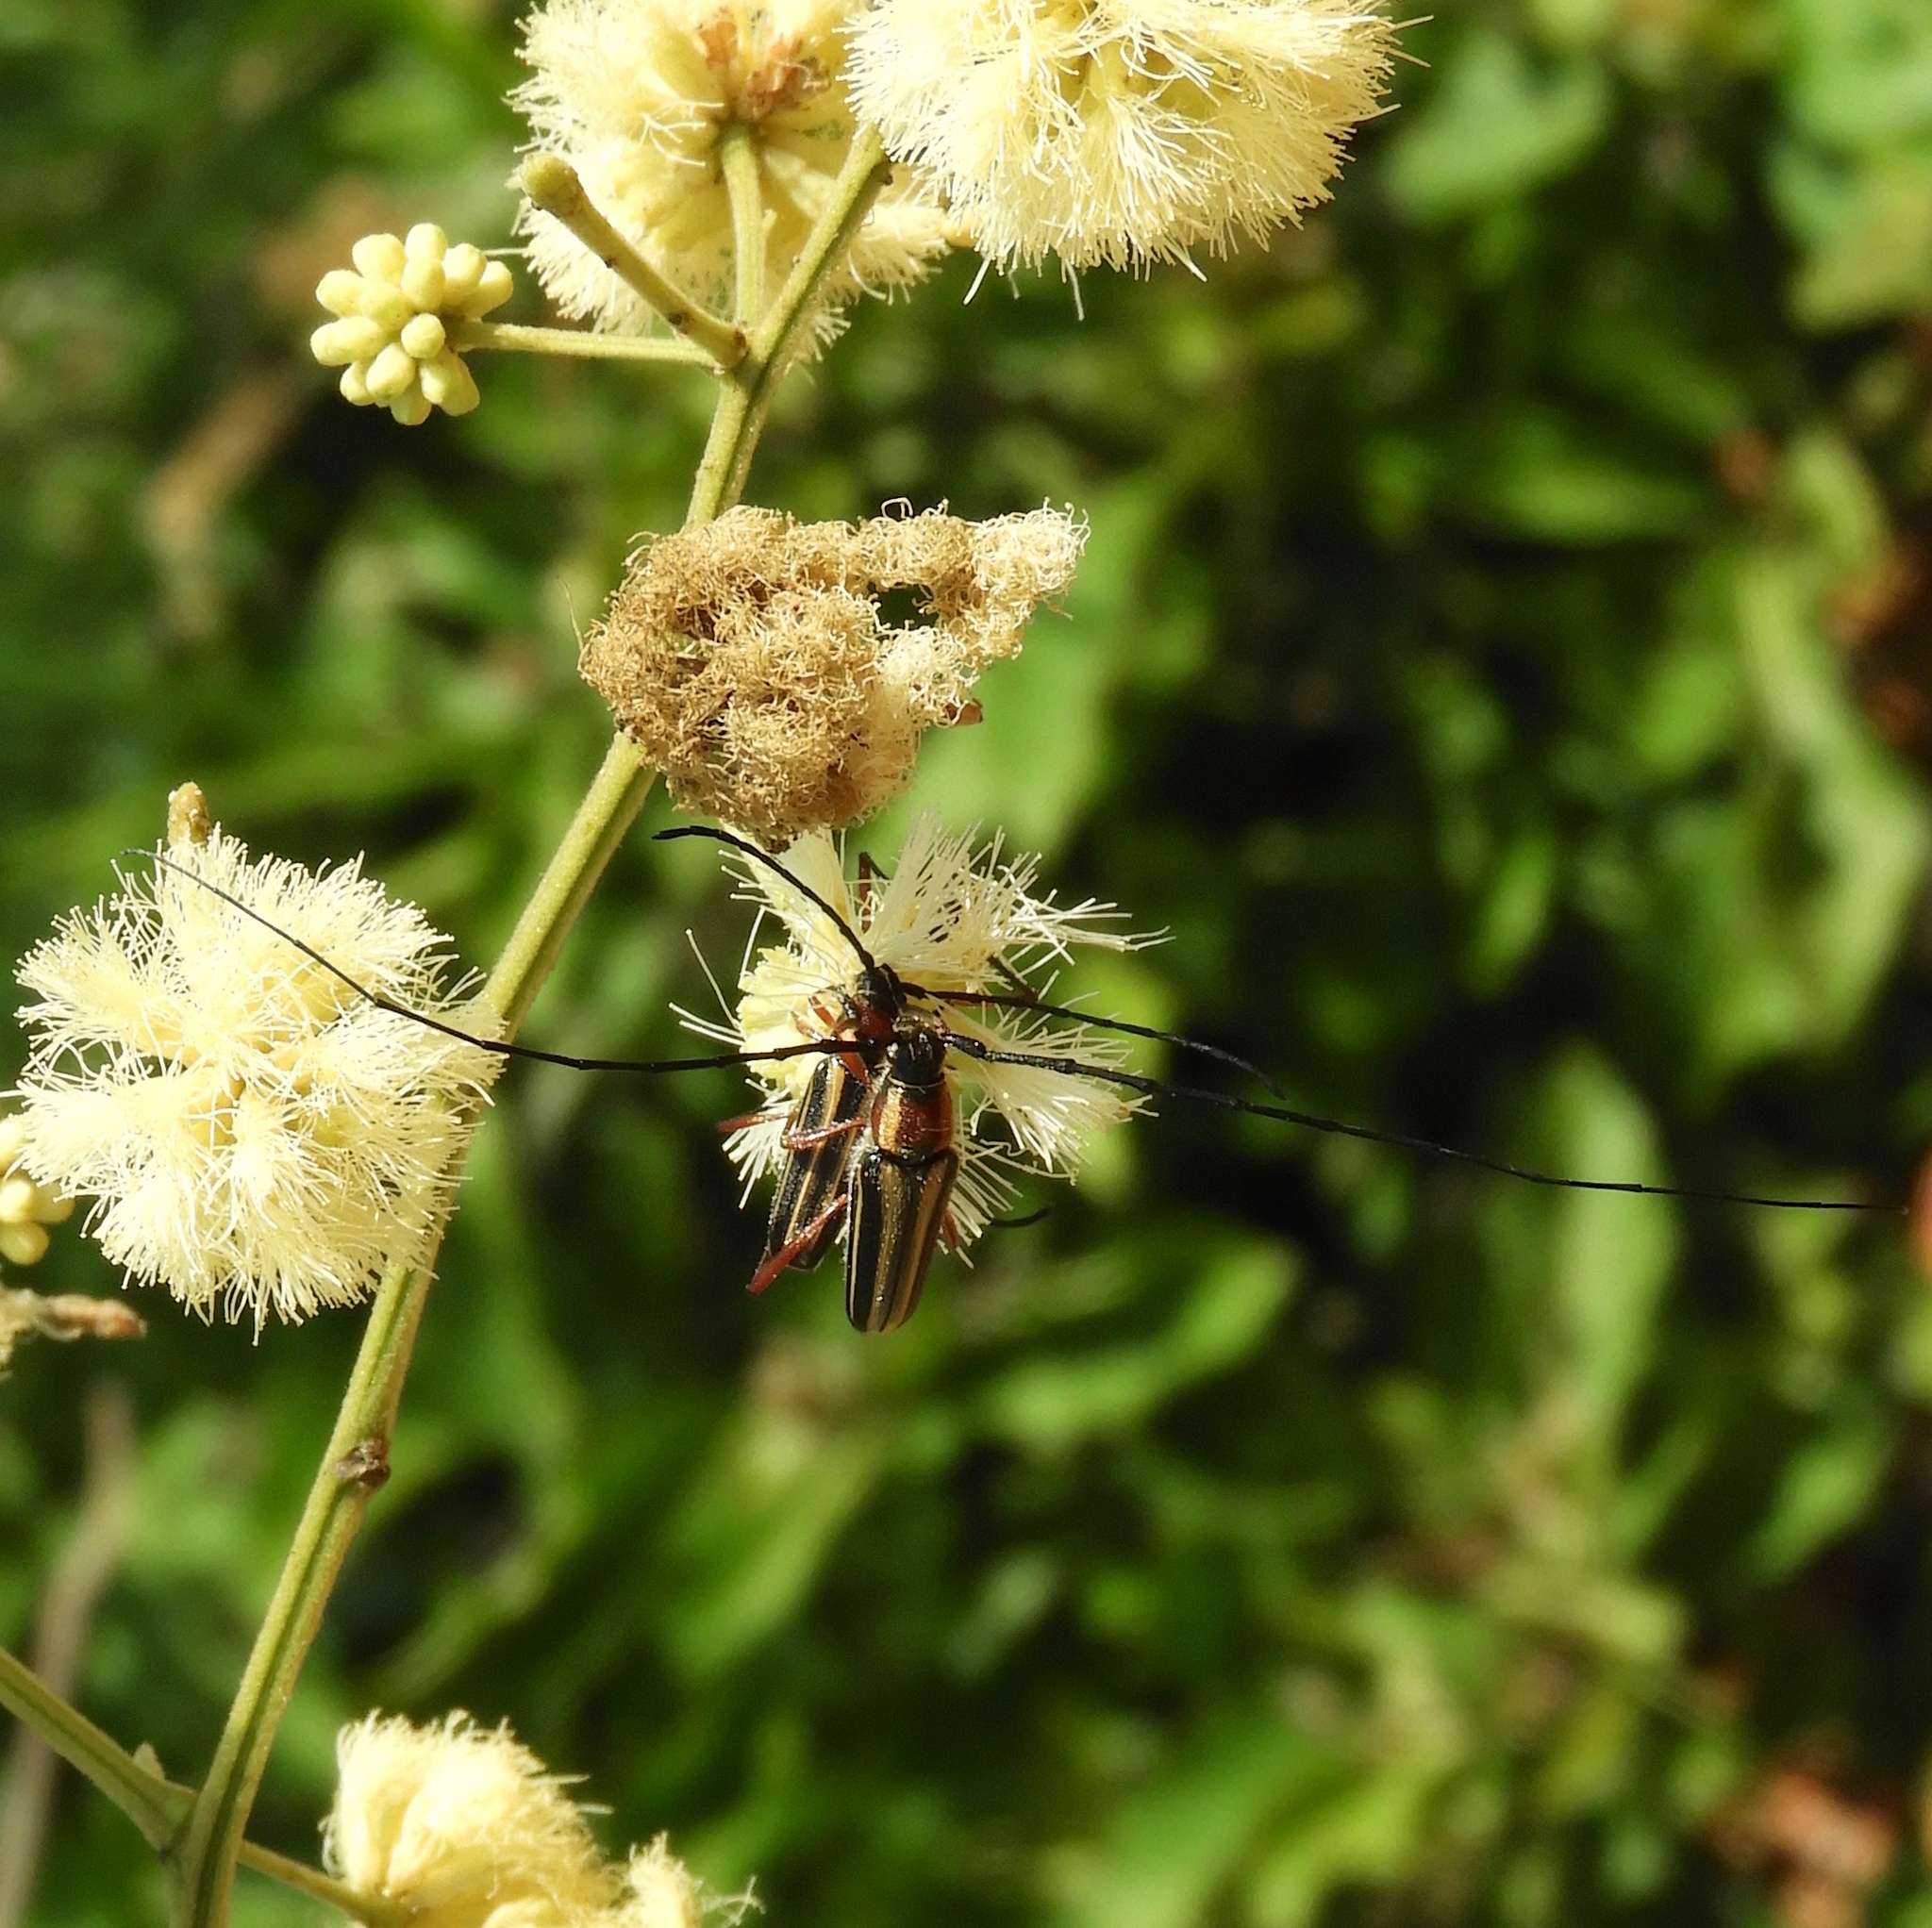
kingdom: Animalia
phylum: Arthropoda
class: Insecta
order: Coleoptera
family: Cerambycidae
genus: Sphaenothecus
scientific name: Sphaenothecus bilineatus
